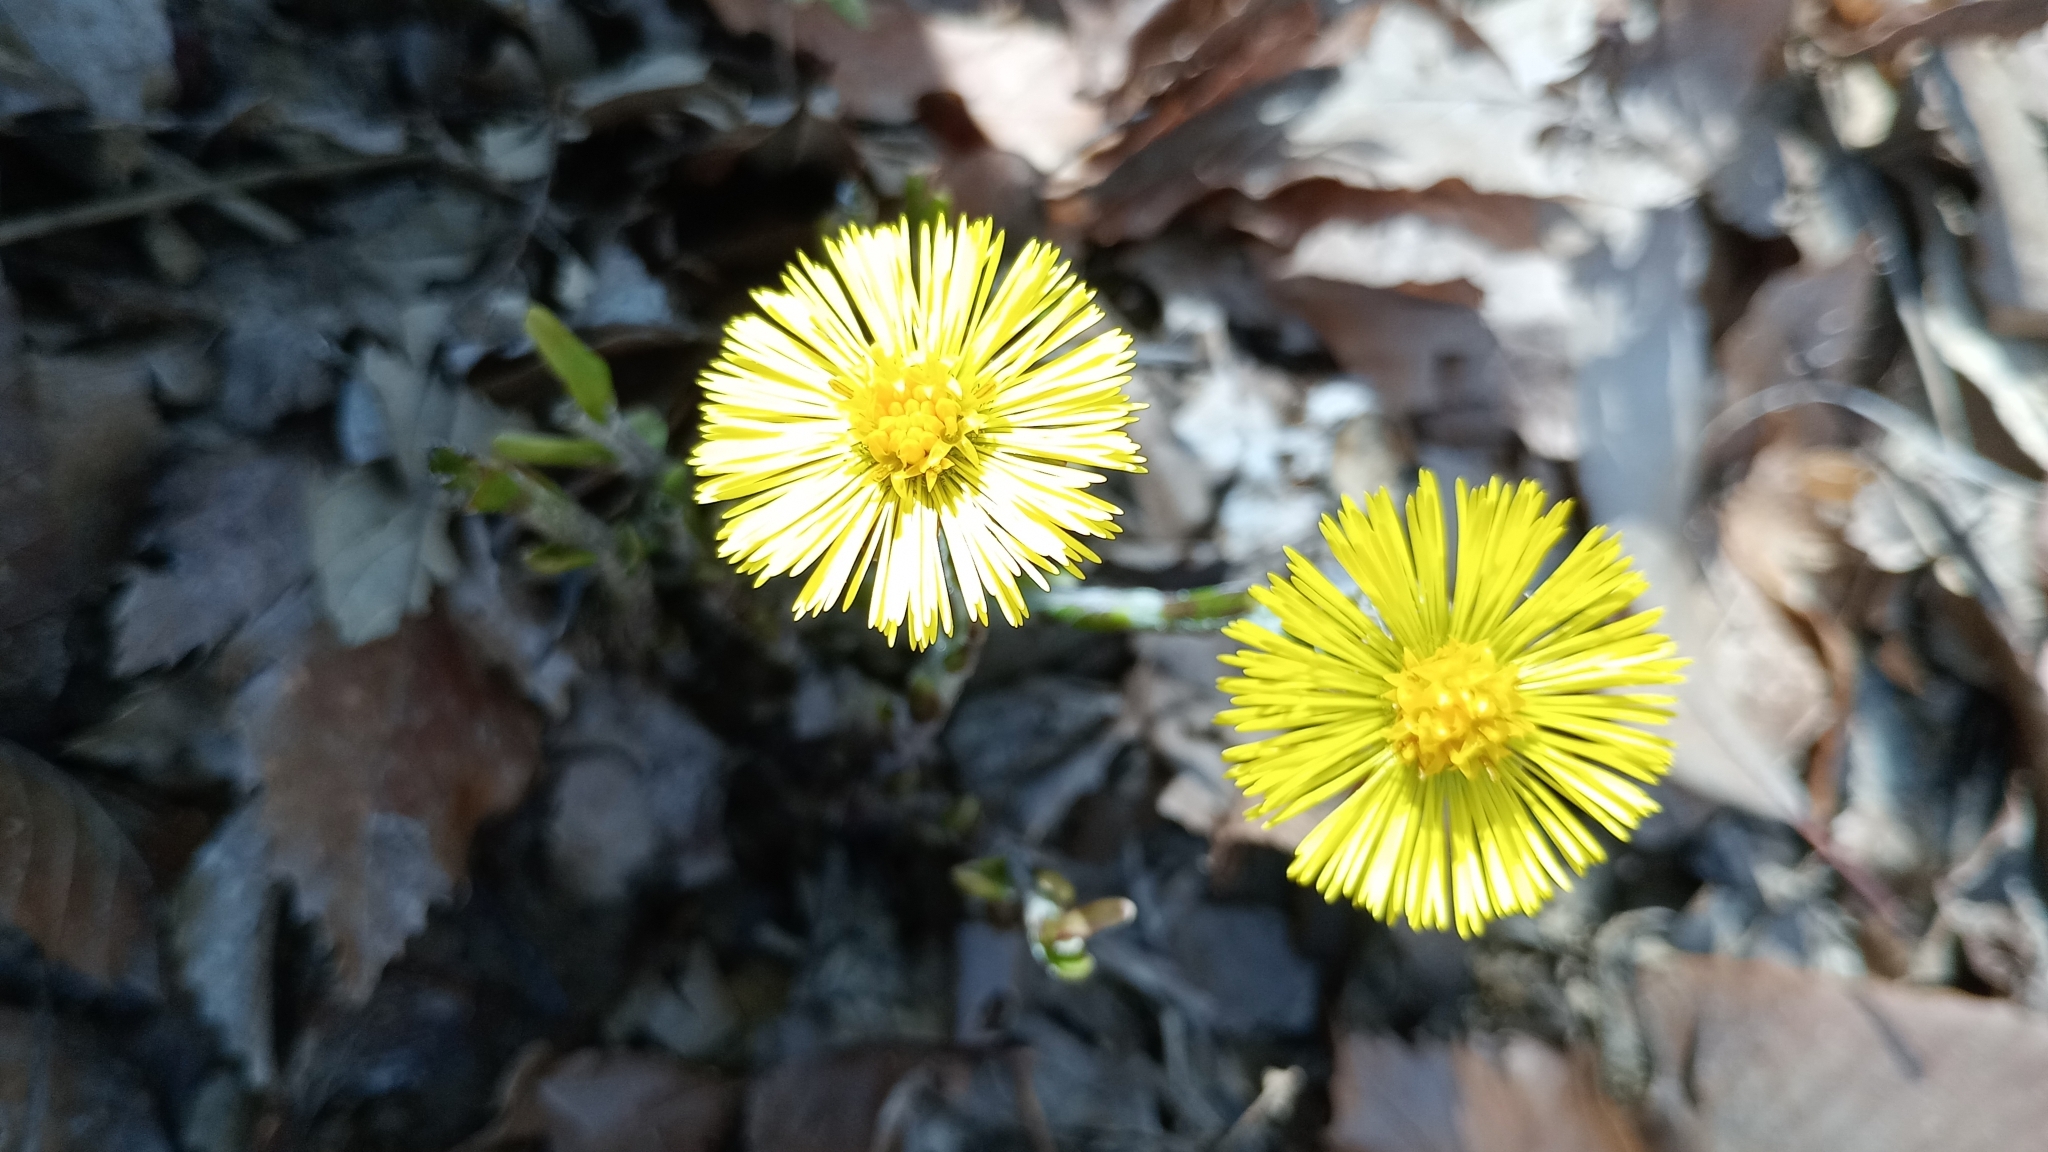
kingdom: Plantae
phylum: Tracheophyta
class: Magnoliopsida
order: Asterales
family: Asteraceae
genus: Tussilago
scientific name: Tussilago farfara
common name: Coltsfoot
